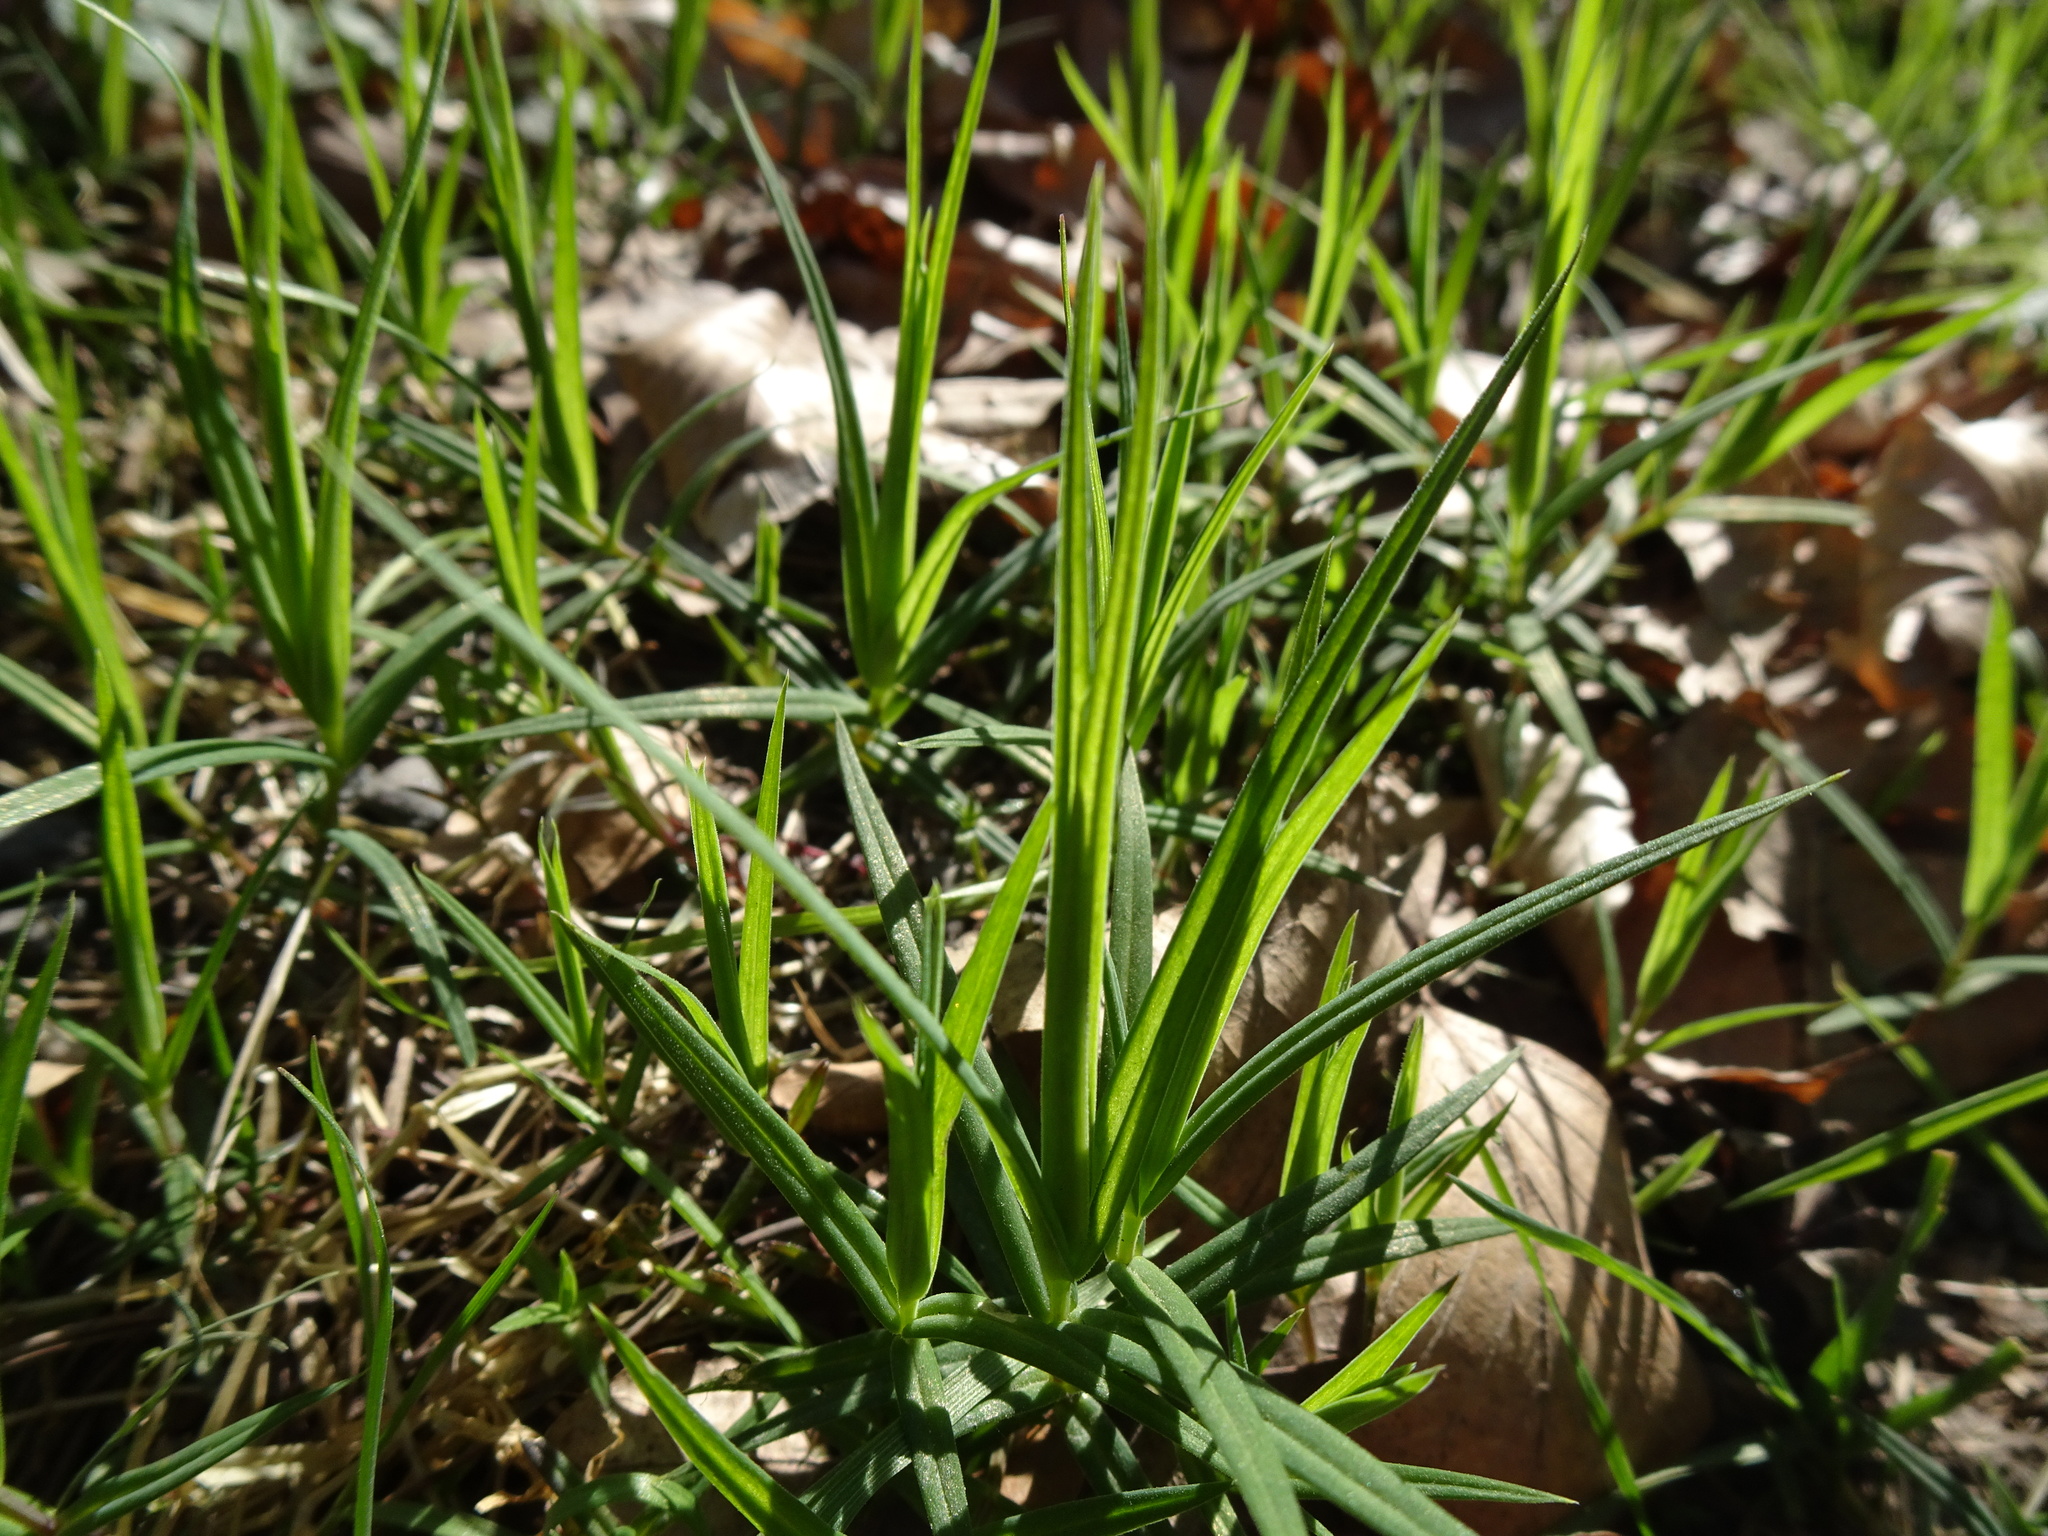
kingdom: Plantae
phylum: Tracheophyta
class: Magnoliopsida
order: Caryophyllales
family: Caryophyllaceae
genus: Rabelera
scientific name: Rabelera holostea
